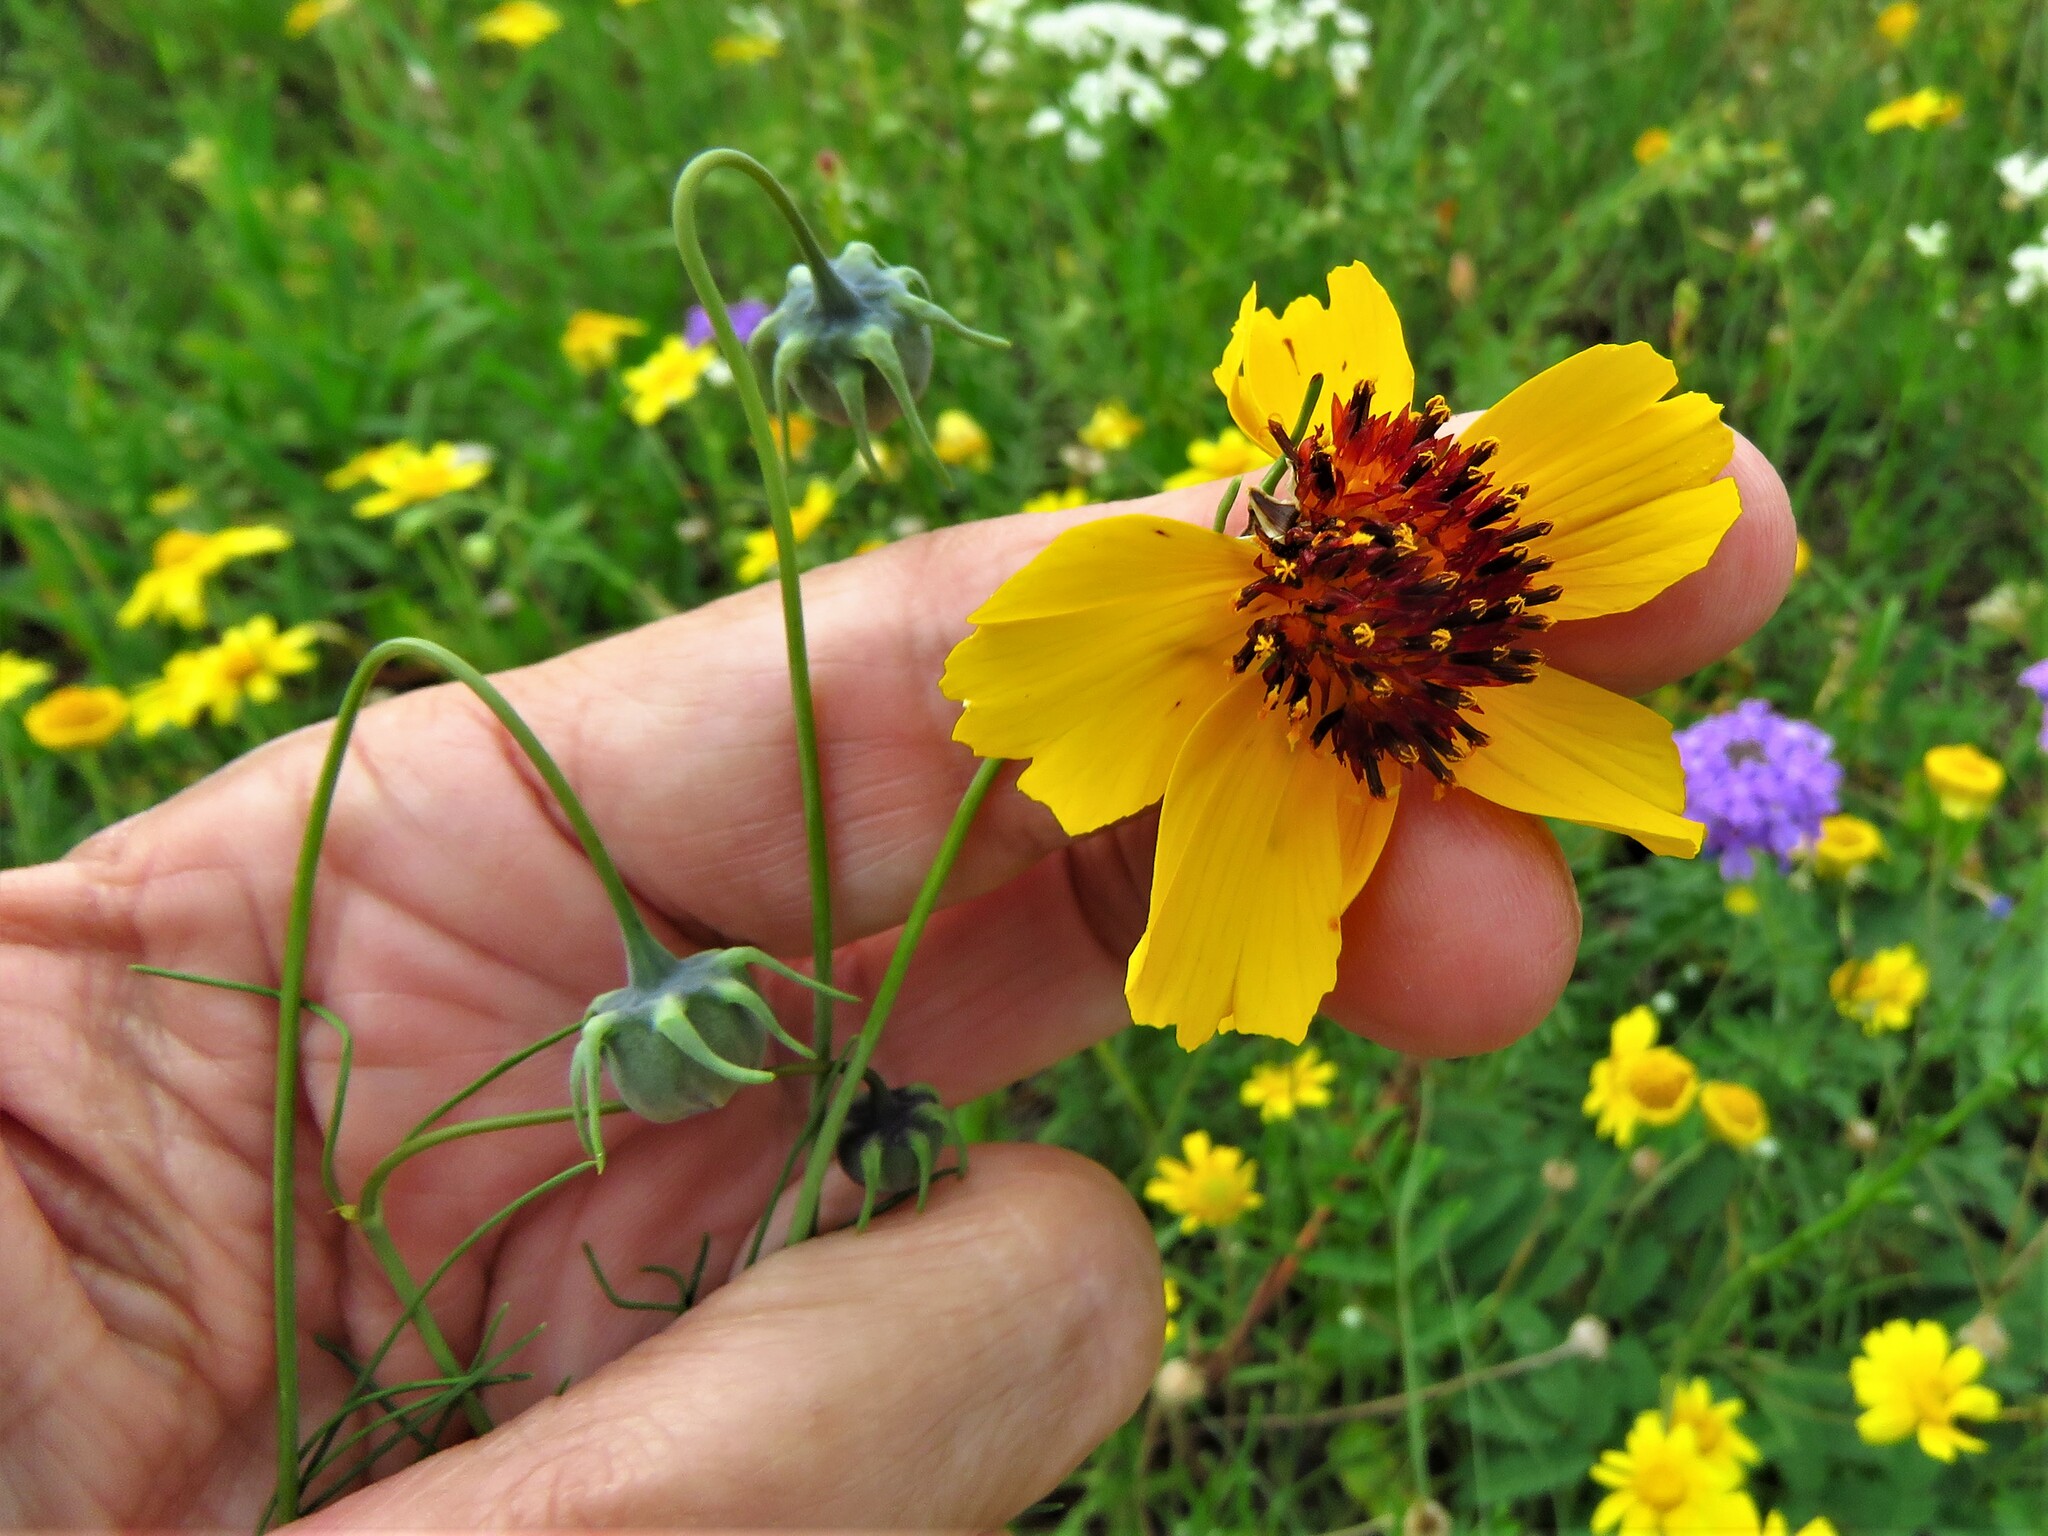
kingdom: Plantae
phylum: Tracheophyta
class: Magnoliopsida
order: Asterales
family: Asteraceae
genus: Thelesperma
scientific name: Thelesperma filifolium
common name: Stiff greenthread
